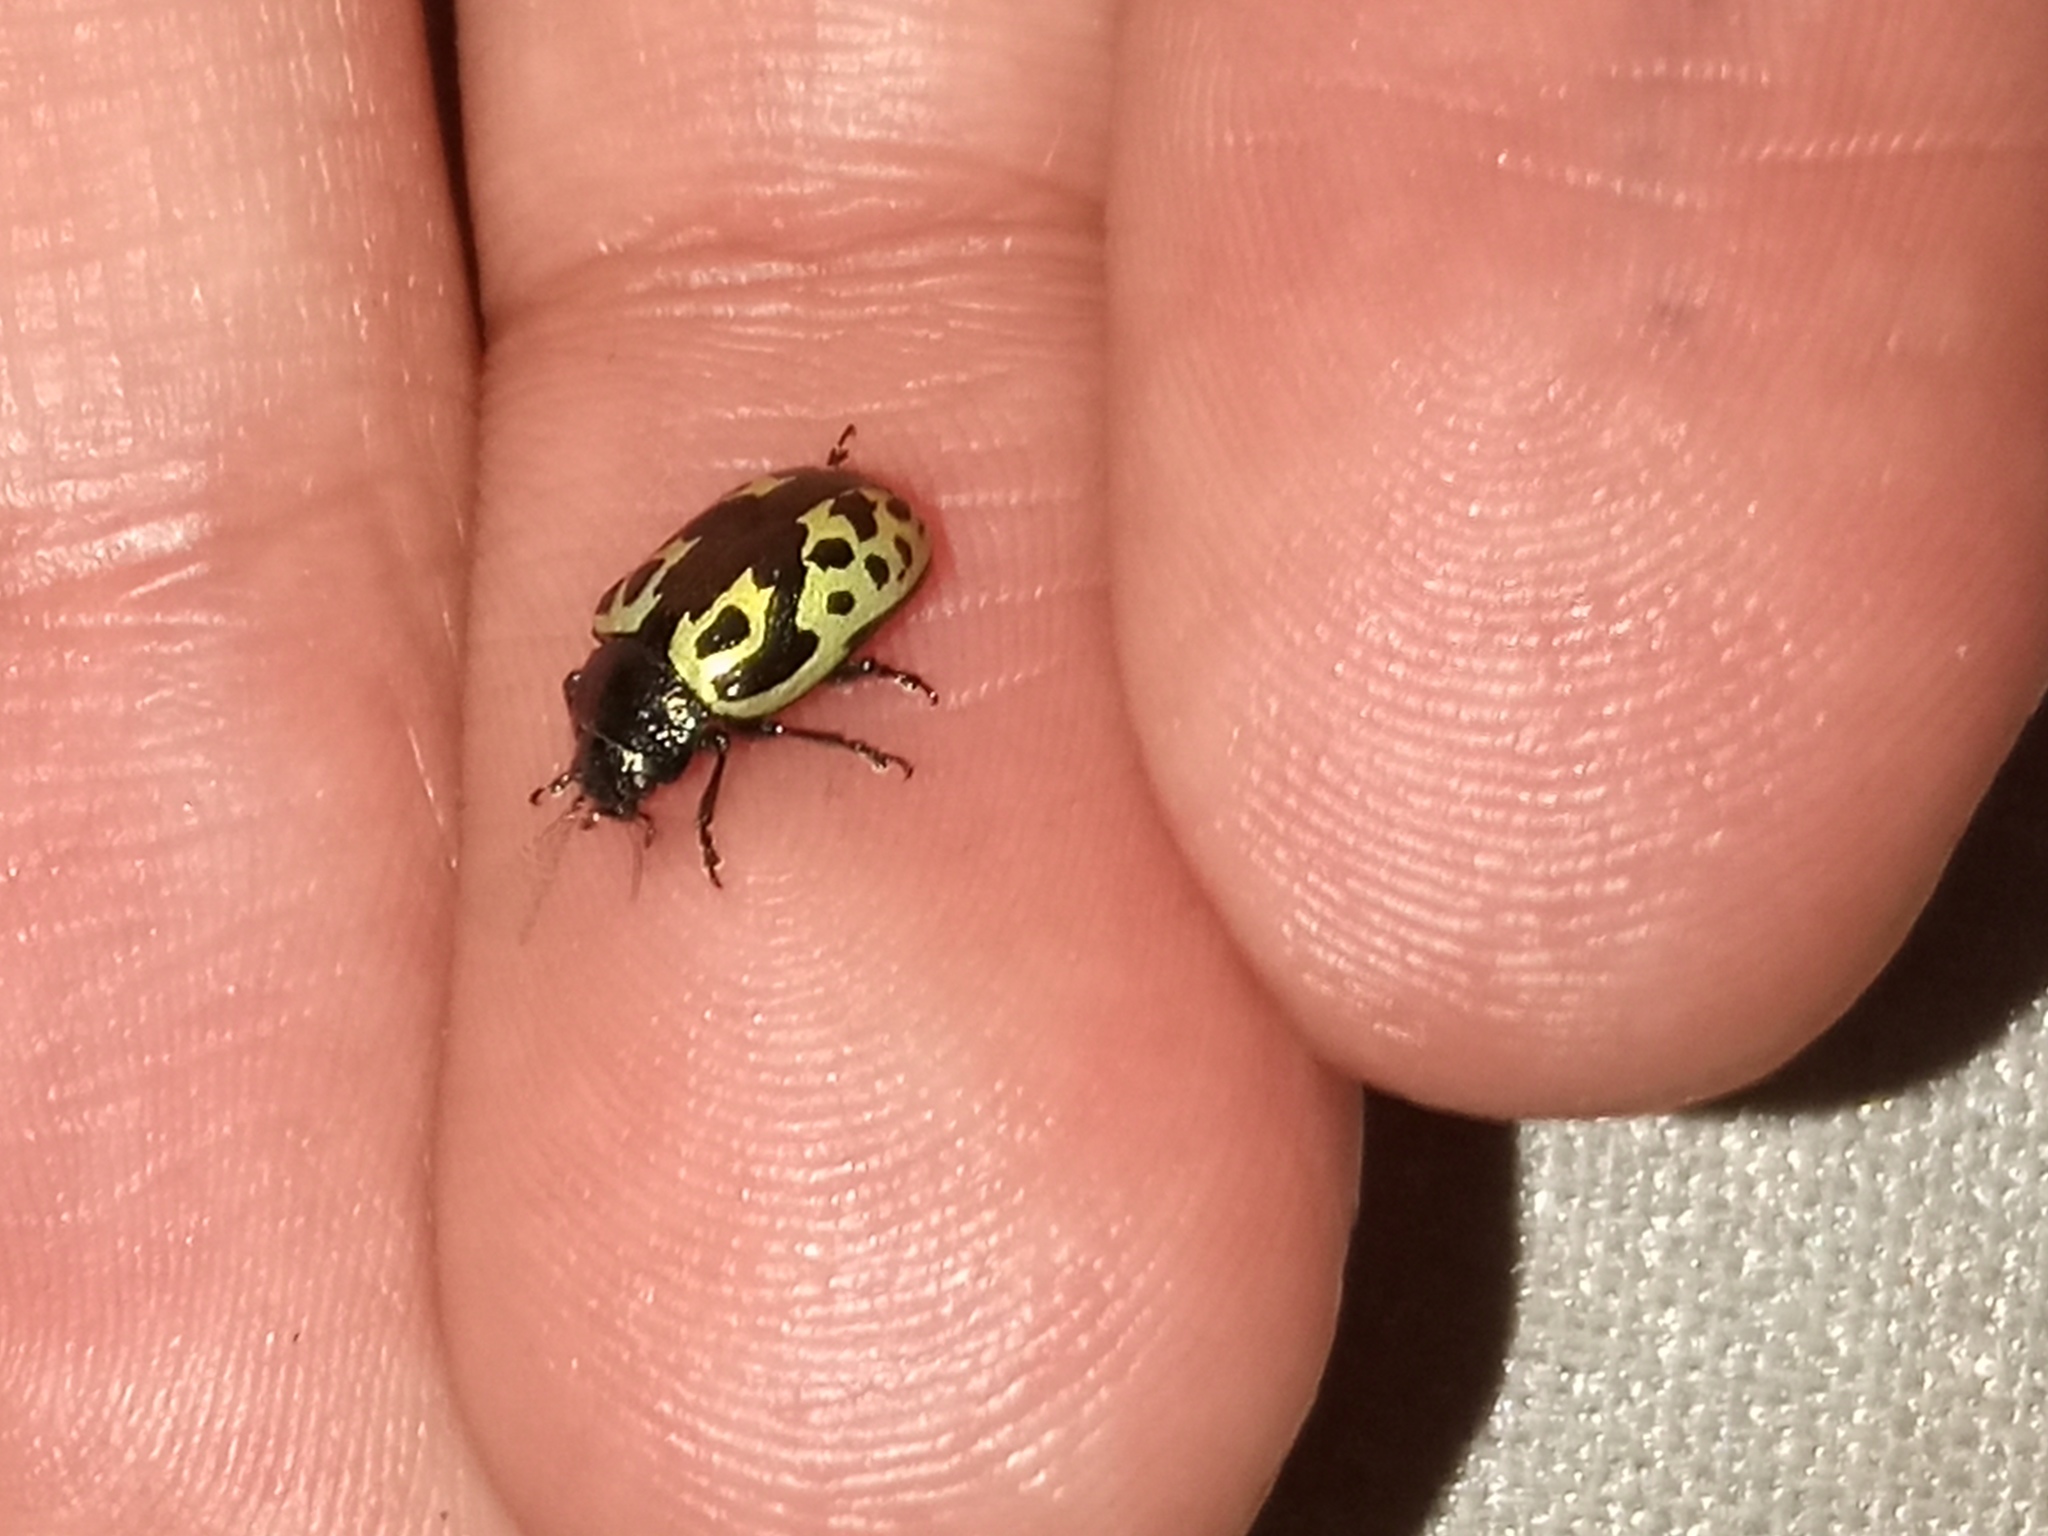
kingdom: Animalia
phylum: Arthropoda
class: Insecta
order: Coleoptera
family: Chrysomelidae
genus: Calligrapha
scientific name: Calligrapha
